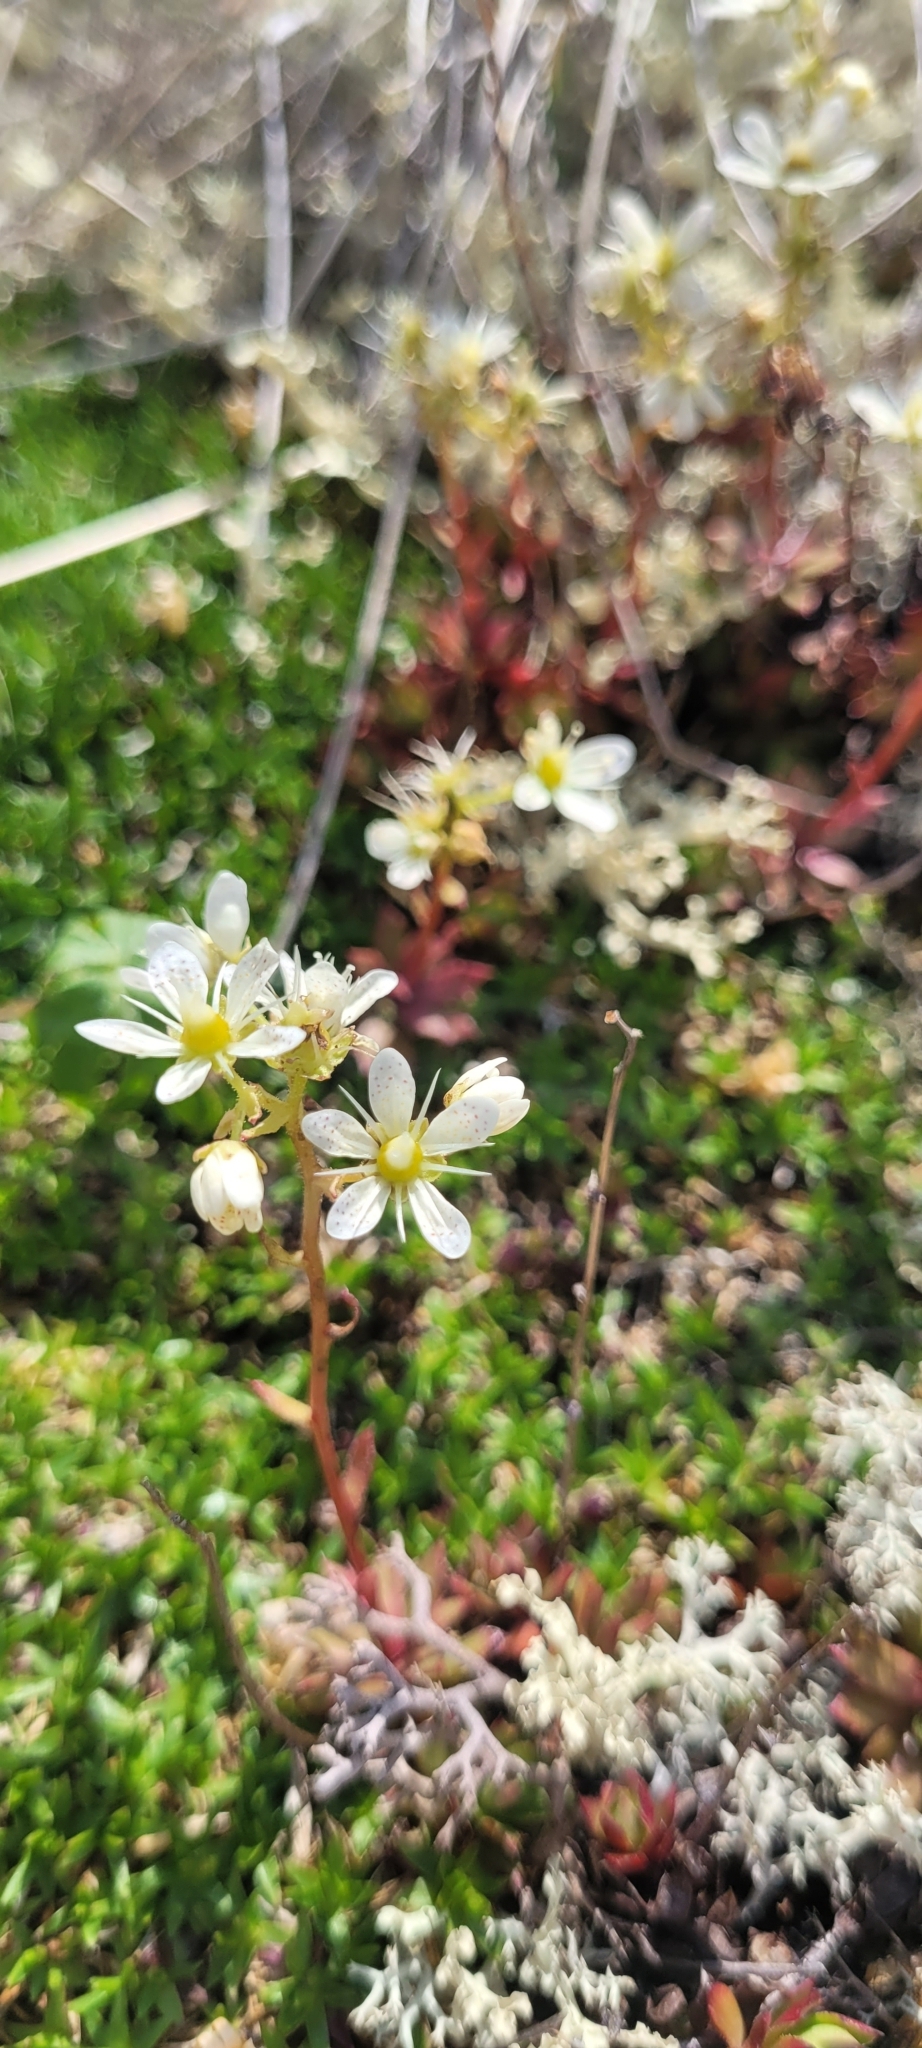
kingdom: Plantae
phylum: Tracheophyta
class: Magnoliopsida
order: Saxifragales
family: Saxifragaceae
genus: Saxifraga
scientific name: Saxifraga tricuspidata
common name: Prickly saxifrage
